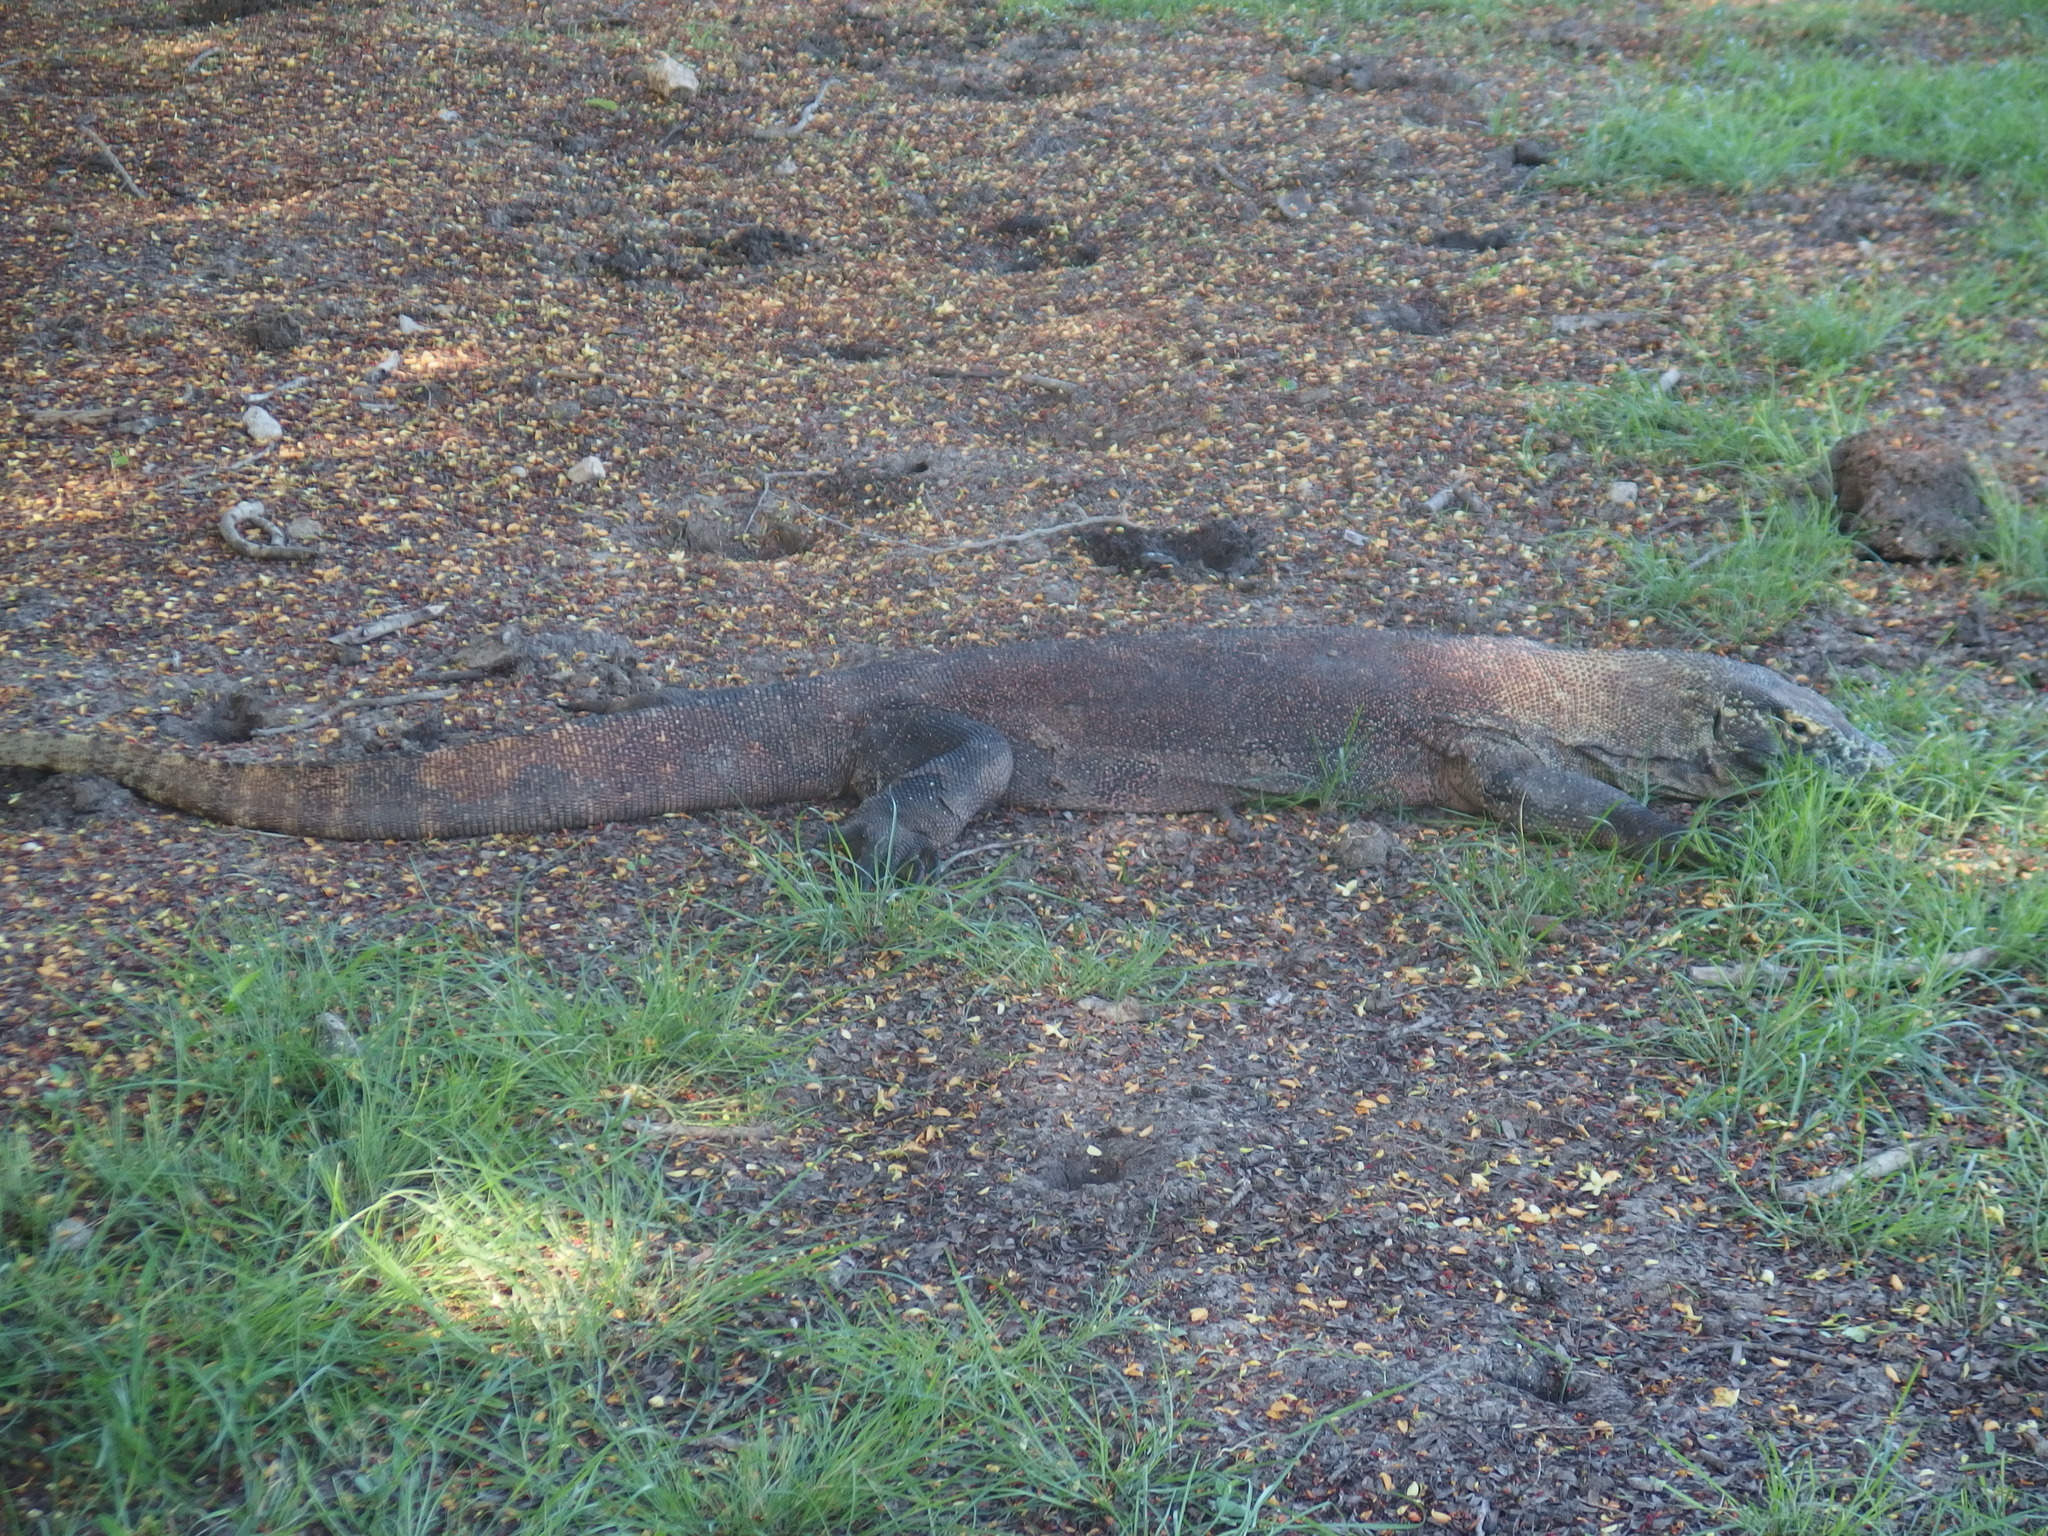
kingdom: Animalia
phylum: Chordata
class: Squamata
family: Varanidae
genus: Varanus
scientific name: Varanus komodoensis
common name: Komodo dragon
